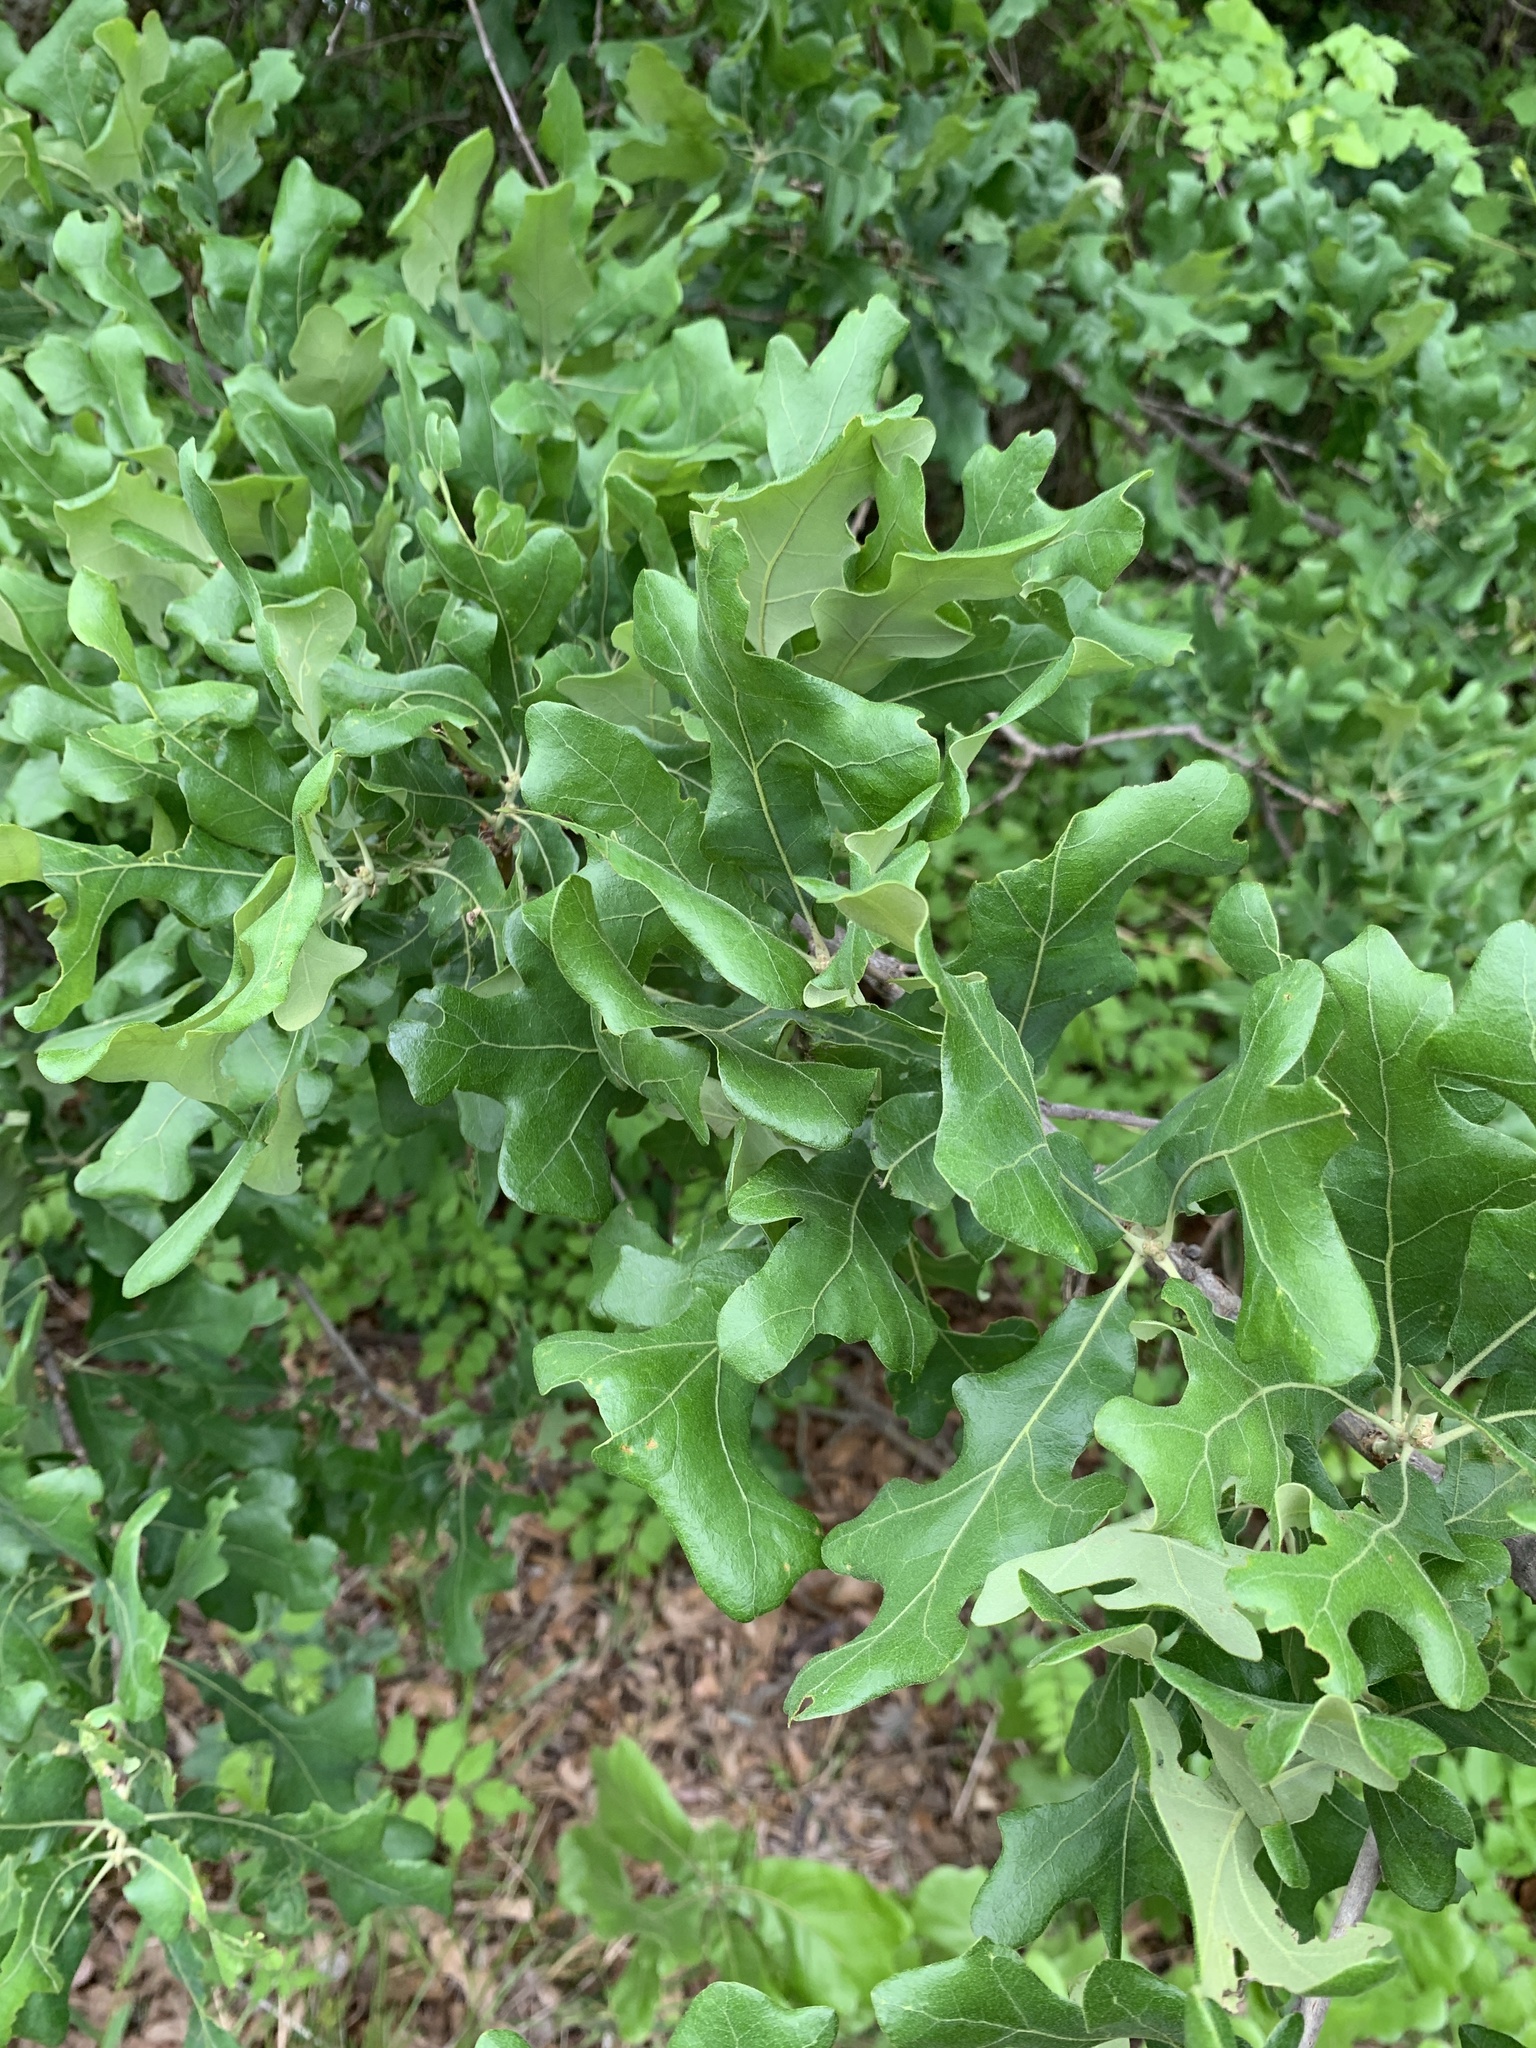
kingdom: Plantae
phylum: Tracheophyta
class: Magnoliopsida
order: Fagales
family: Fagaceae
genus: Quercus
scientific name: Quercus stellata
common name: Post oak
